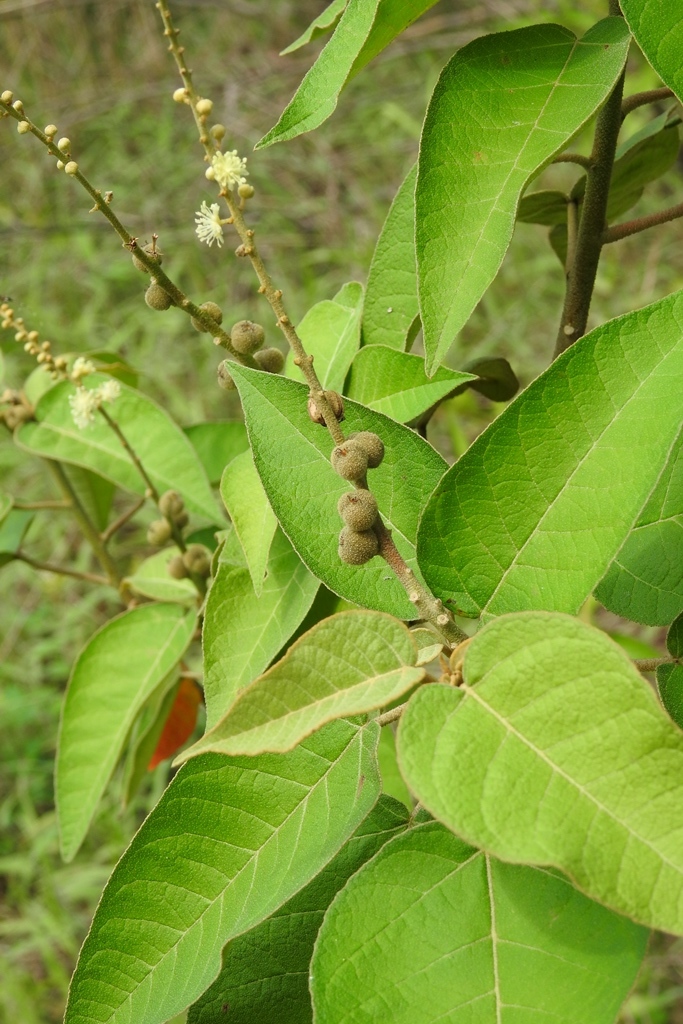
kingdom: Plantae
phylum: Tracheophyta
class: Magnoliopsida
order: Malpighiales
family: Euphorbiaceae
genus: Croton
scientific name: Croton xalapensis
